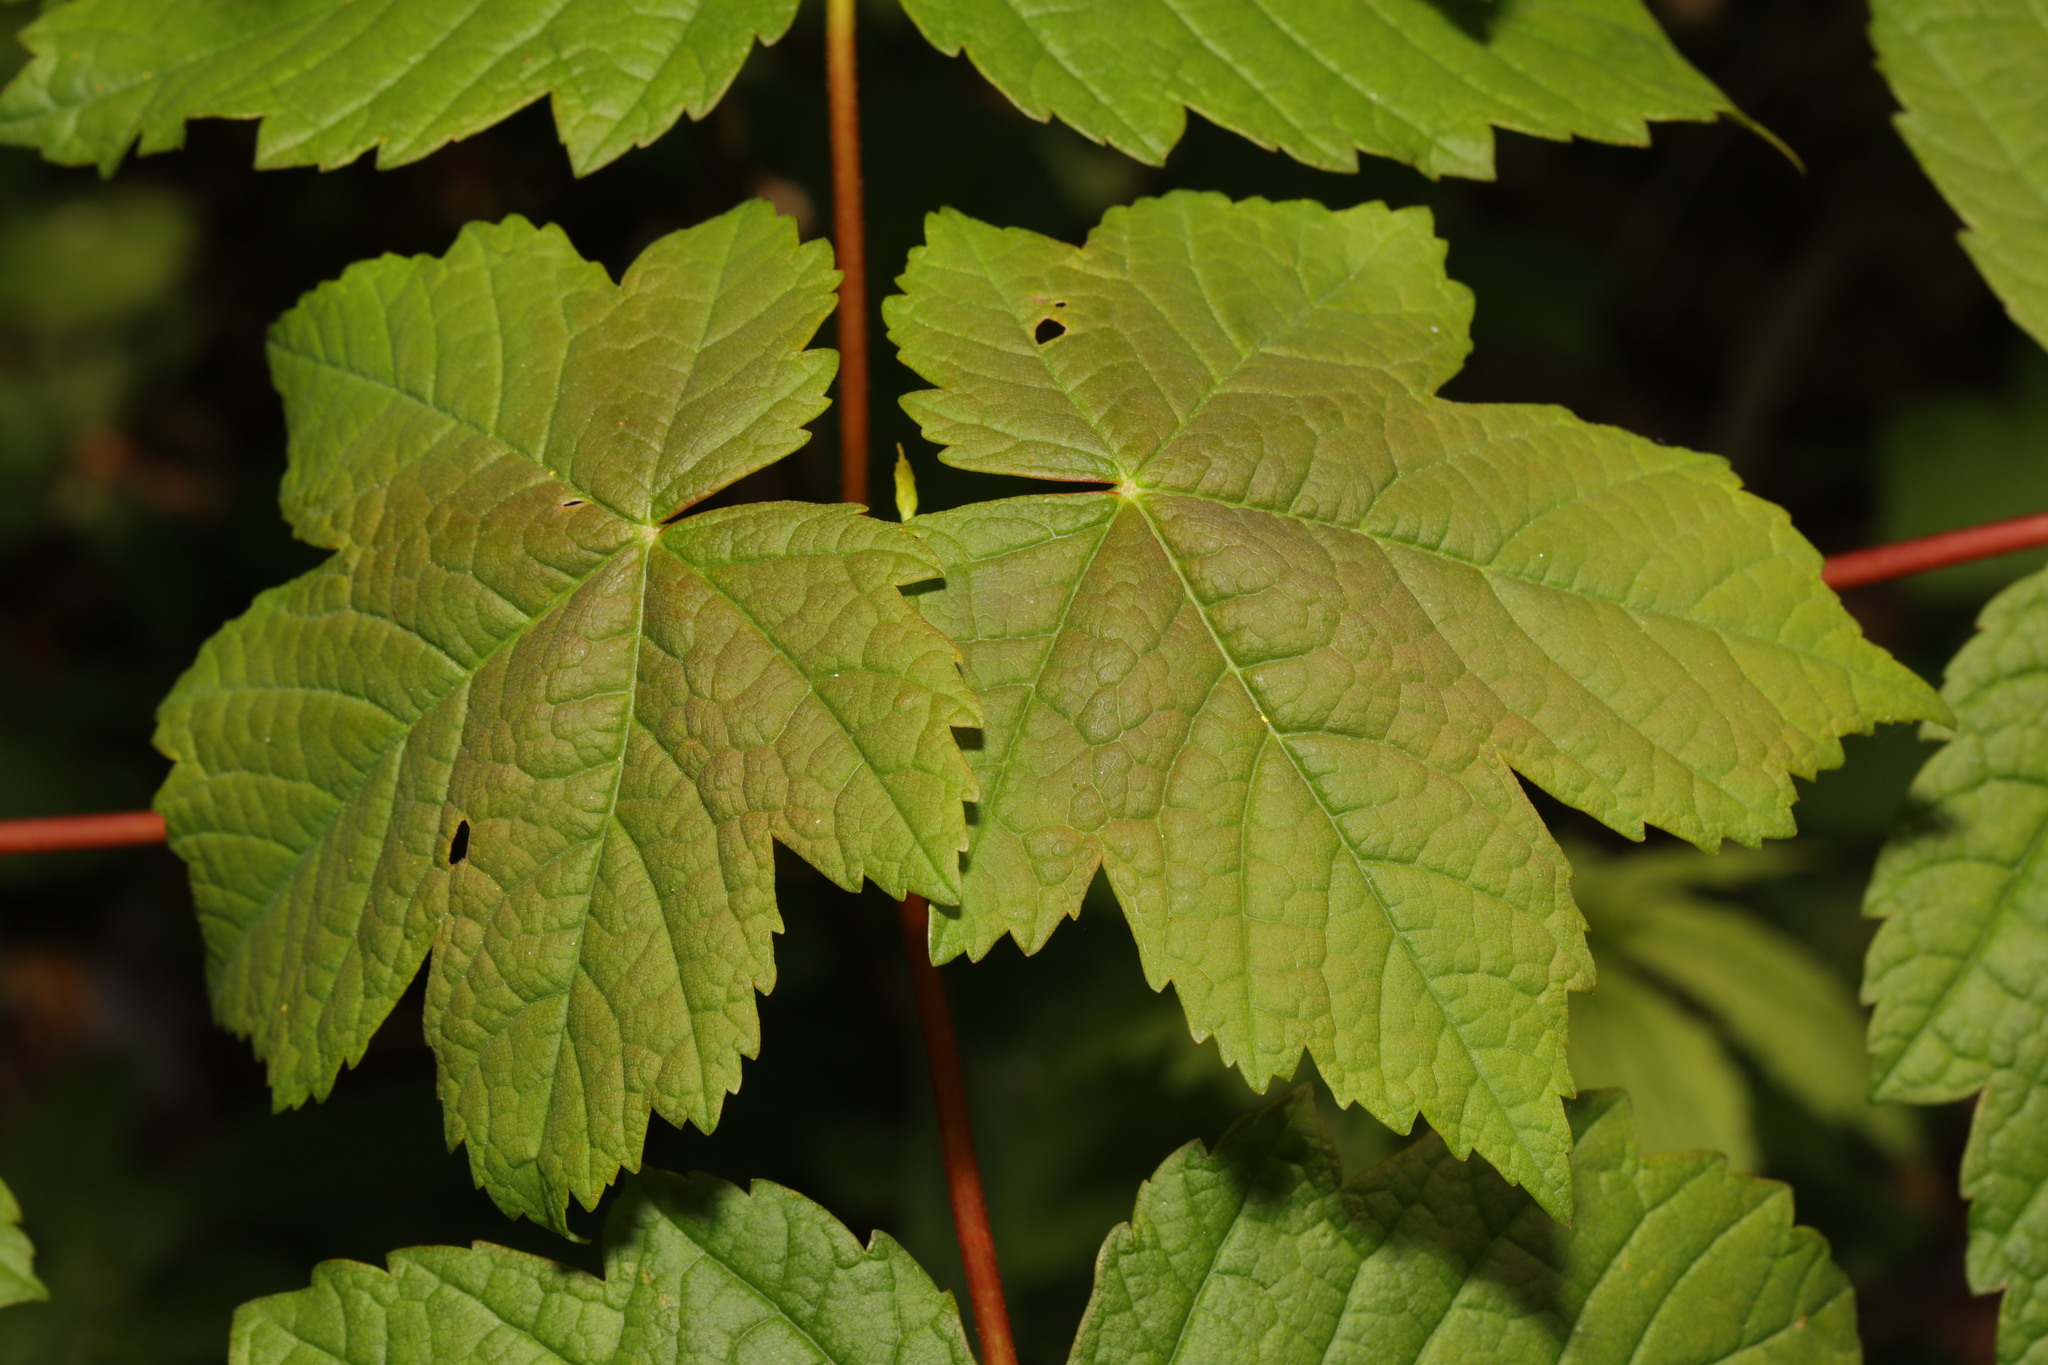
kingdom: Plantae
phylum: Tracheophyta
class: Magnoliopsida
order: Sapindales
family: Sapindaceae
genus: Acer
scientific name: Acer pseudoplatanus
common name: Sycamore
